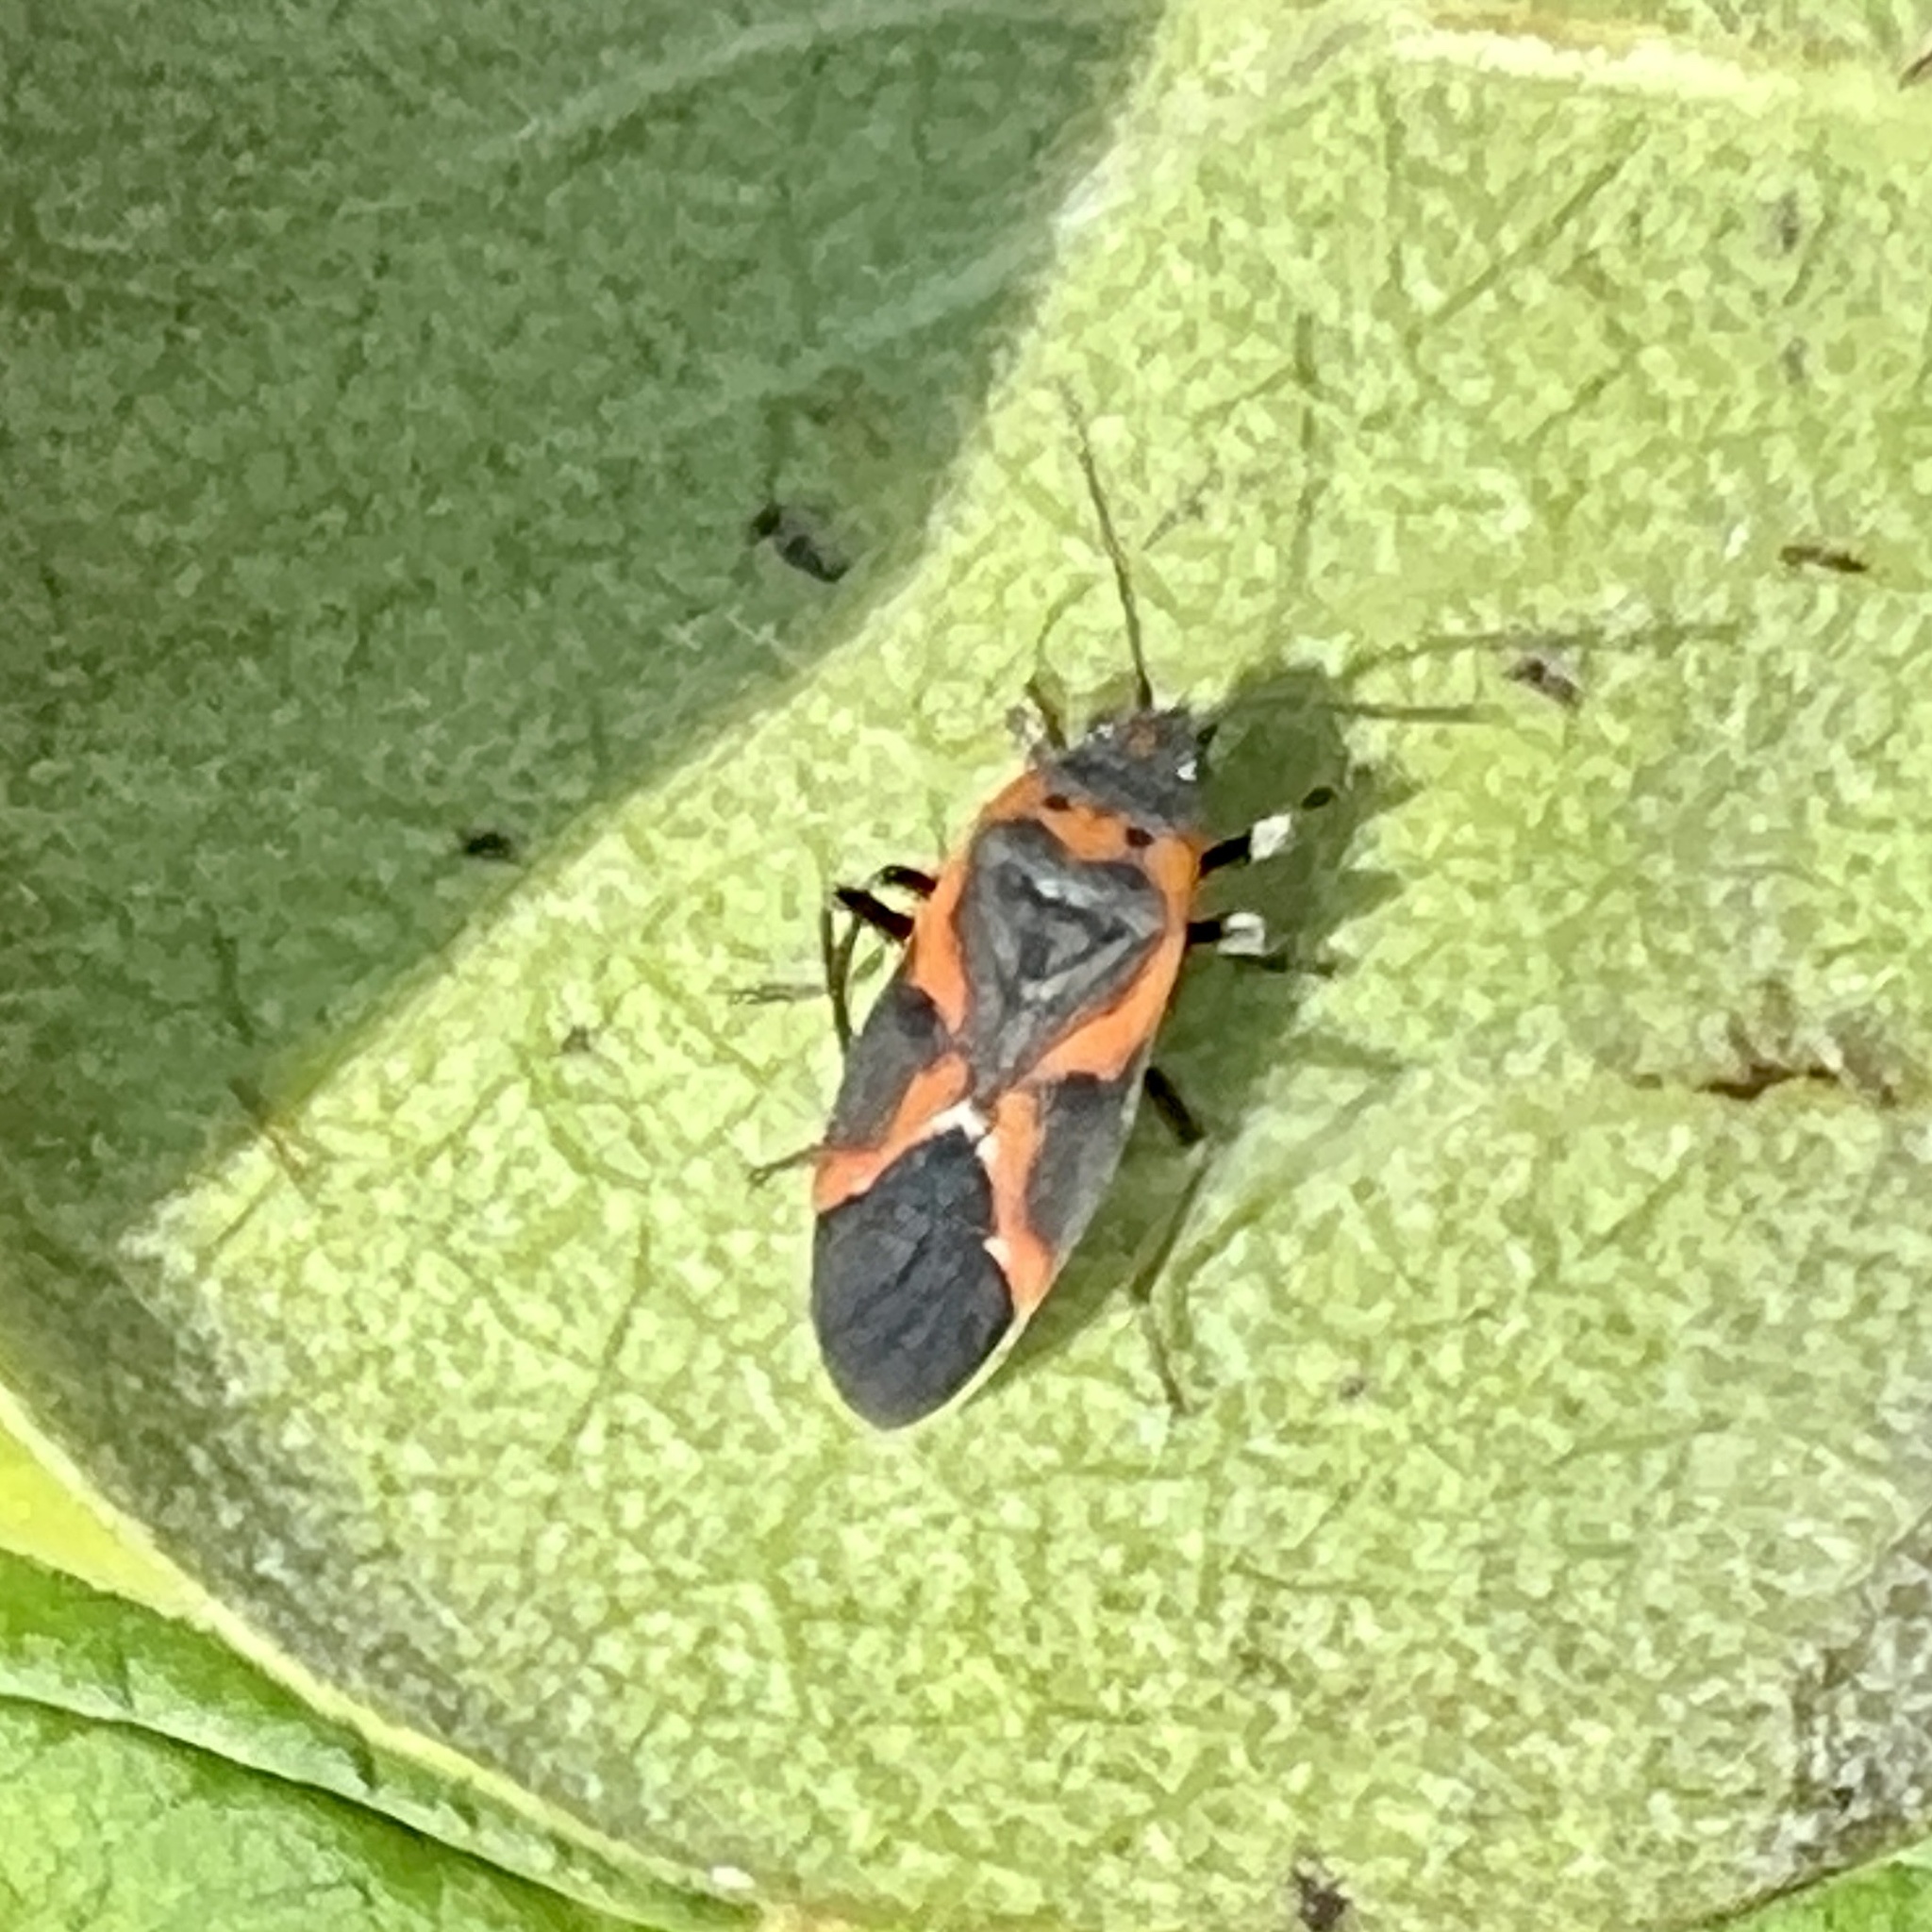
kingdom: Animalia
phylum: Arthropoda
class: Insecta
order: Hemiptera
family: Lygaeidae
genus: Lygaeus
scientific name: Lygaeus kalmii
